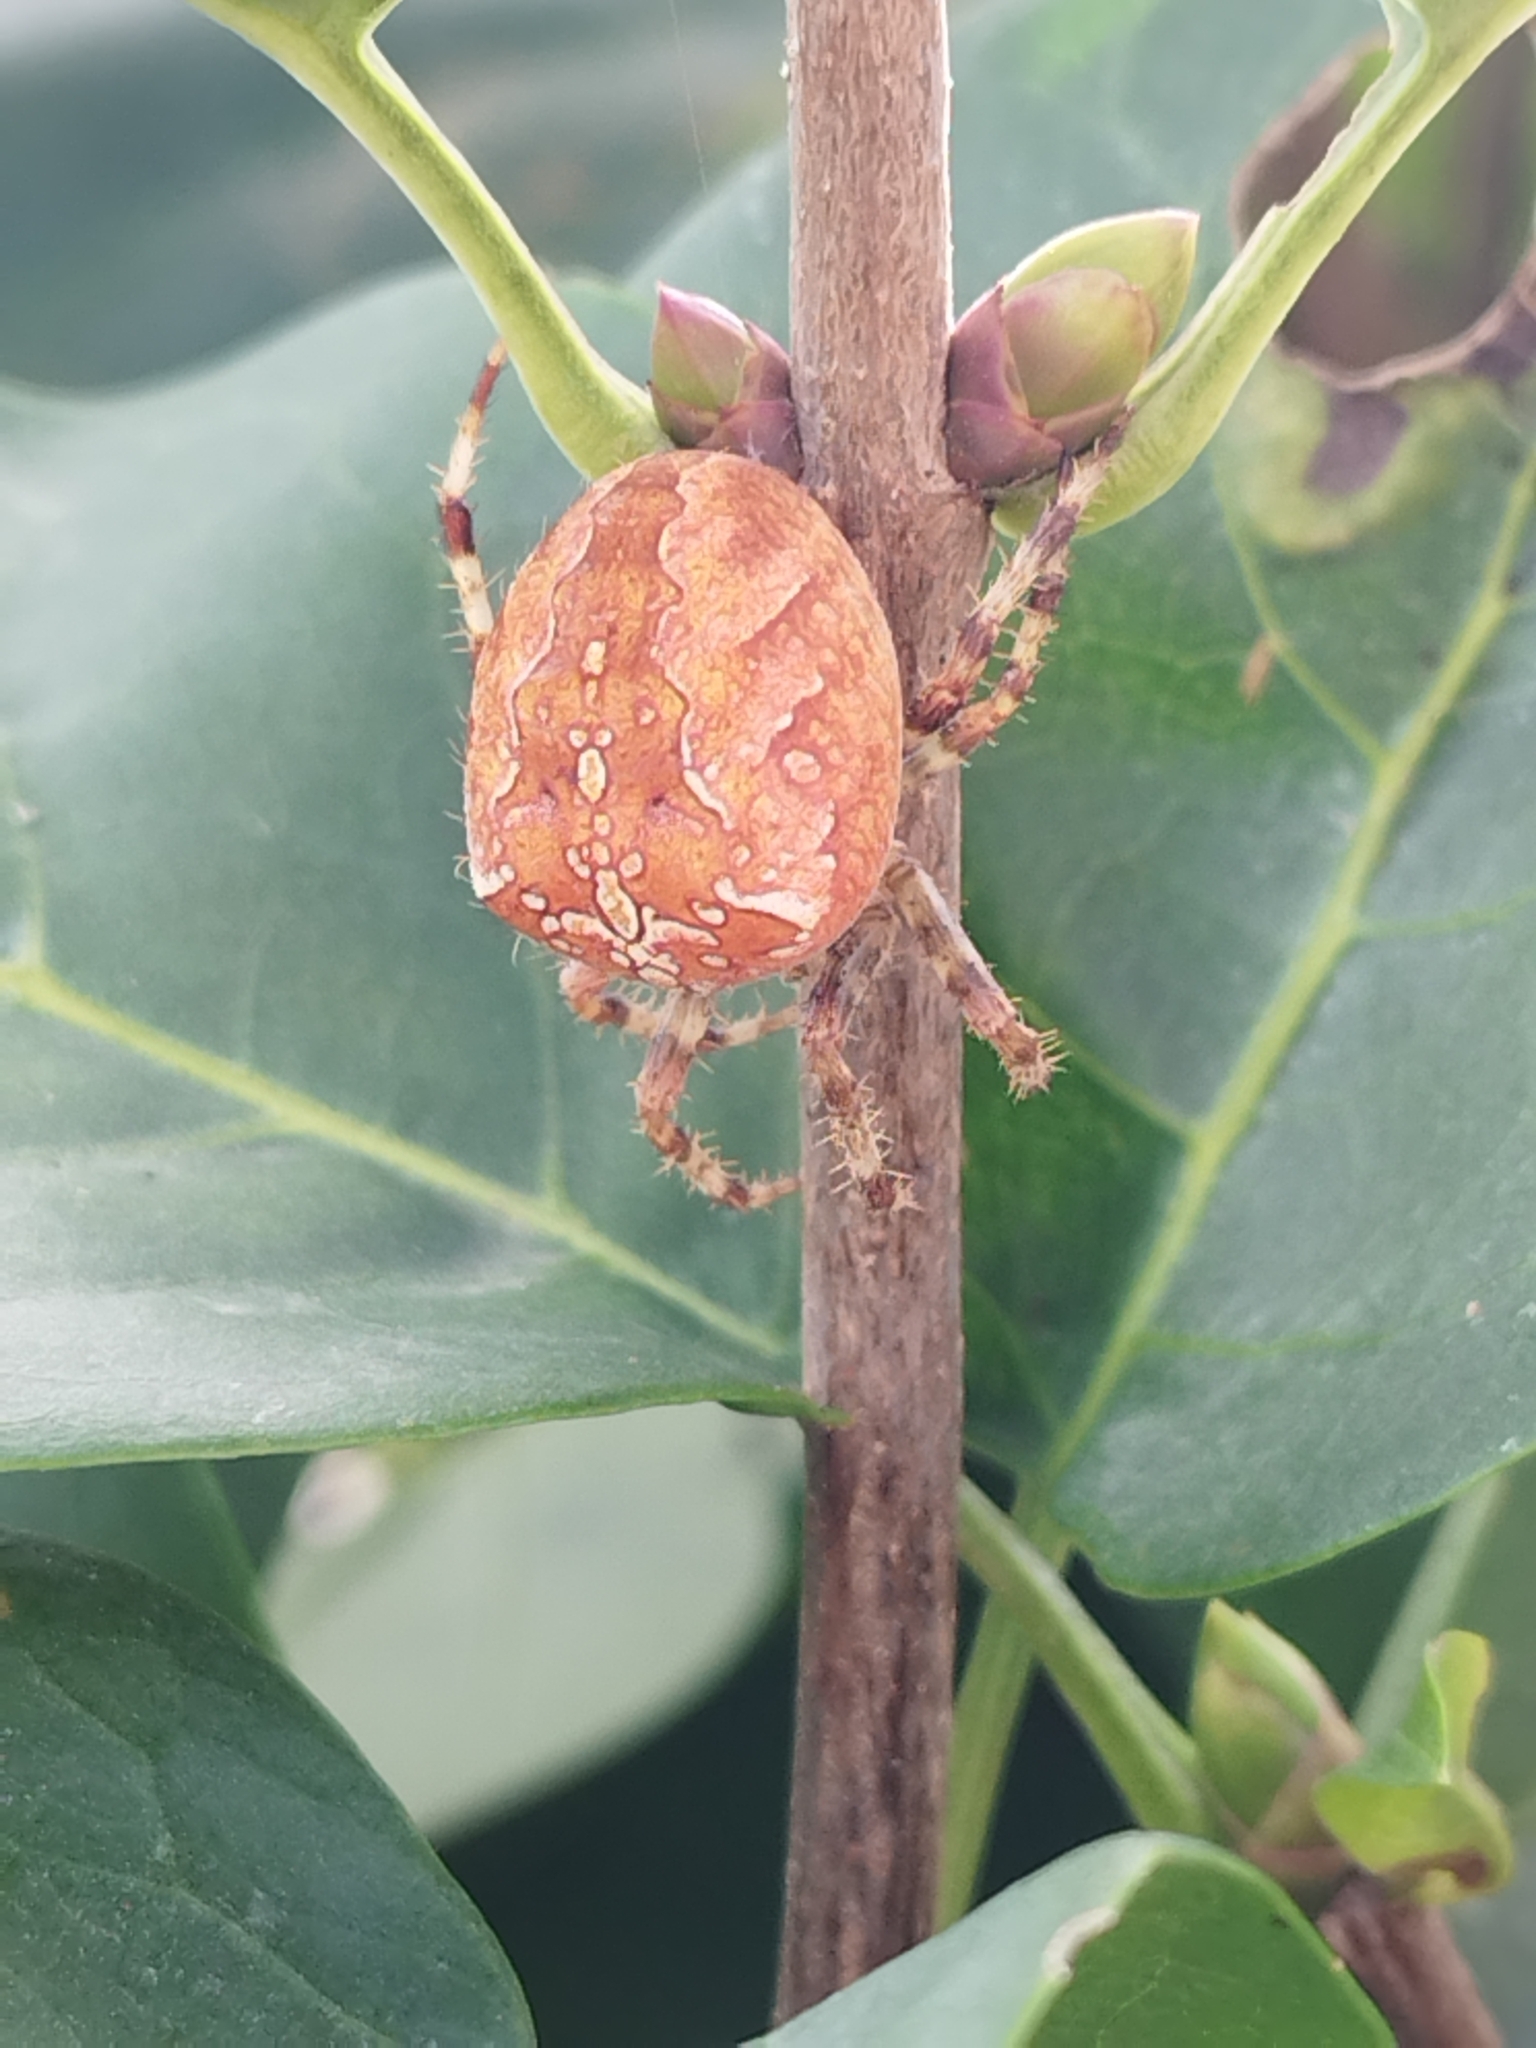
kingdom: Animalia
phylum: Arthropoda
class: Arachnida
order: Araneae
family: Araneidae
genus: Araneus
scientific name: Araneus diadematus
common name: Cross orbweaver
